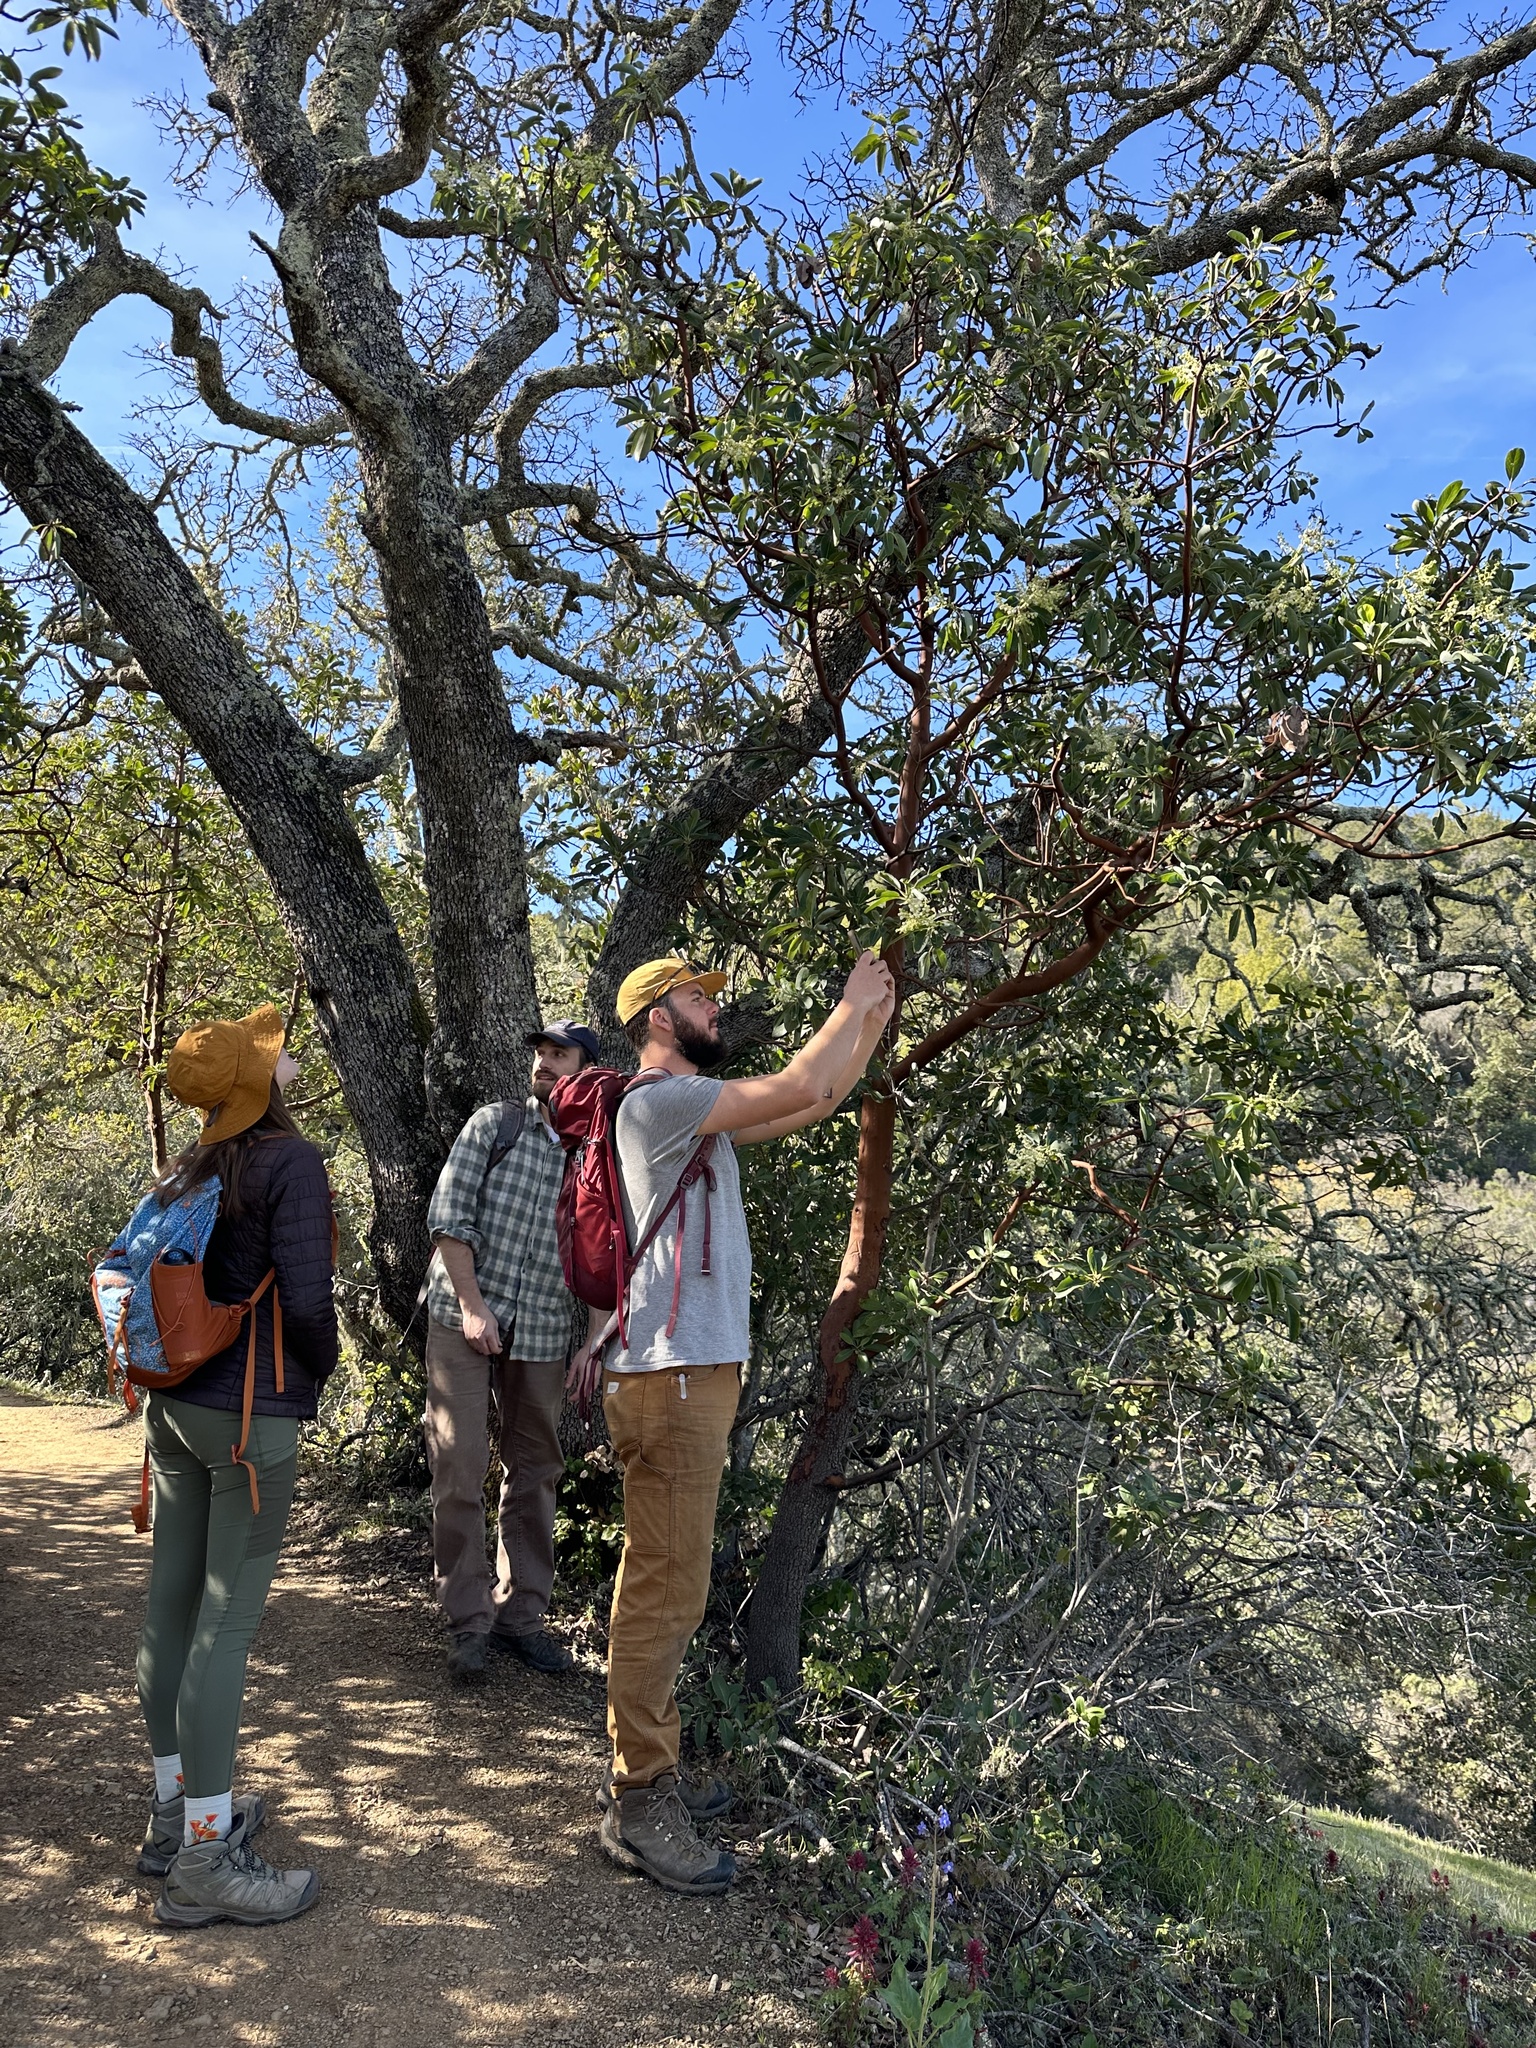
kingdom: Plantae
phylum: Tracheophyta
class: Magnoliopsida
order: Ericales
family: Ericaceae
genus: Arbutus
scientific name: Arbutus menziesii
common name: Pacific madrone
